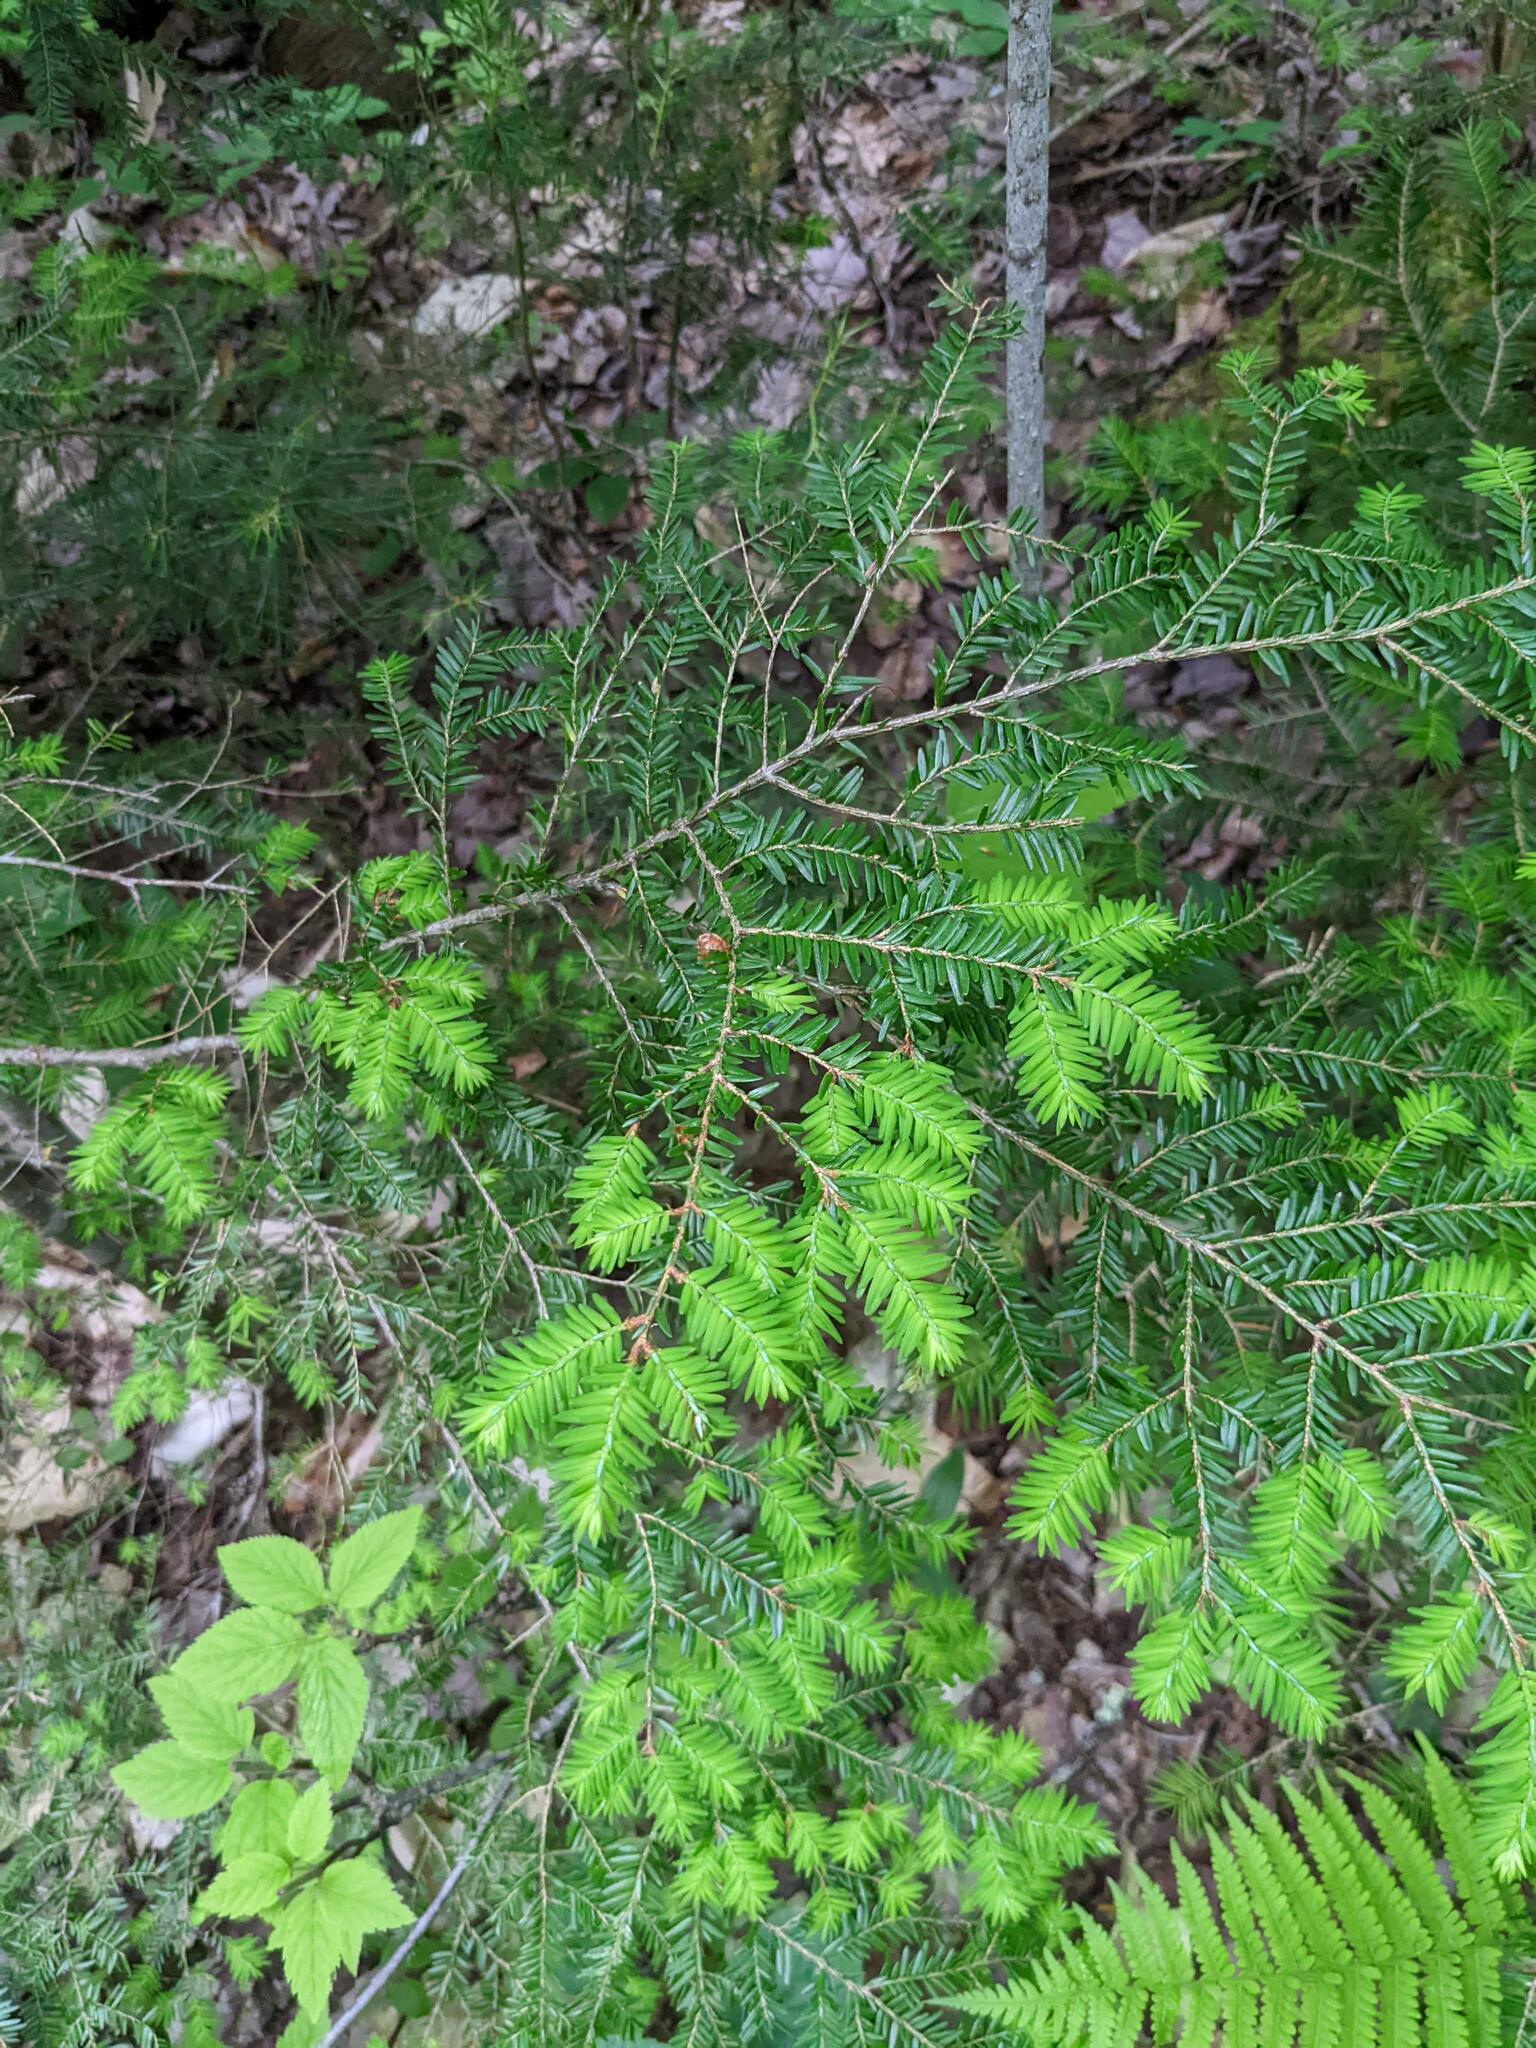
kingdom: Plantae
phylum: Tracheophyta
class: Pinopsida
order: Pinales
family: Pinaceae
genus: Tsuga
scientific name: Tsuga canadensis
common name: Eastern hemlock
